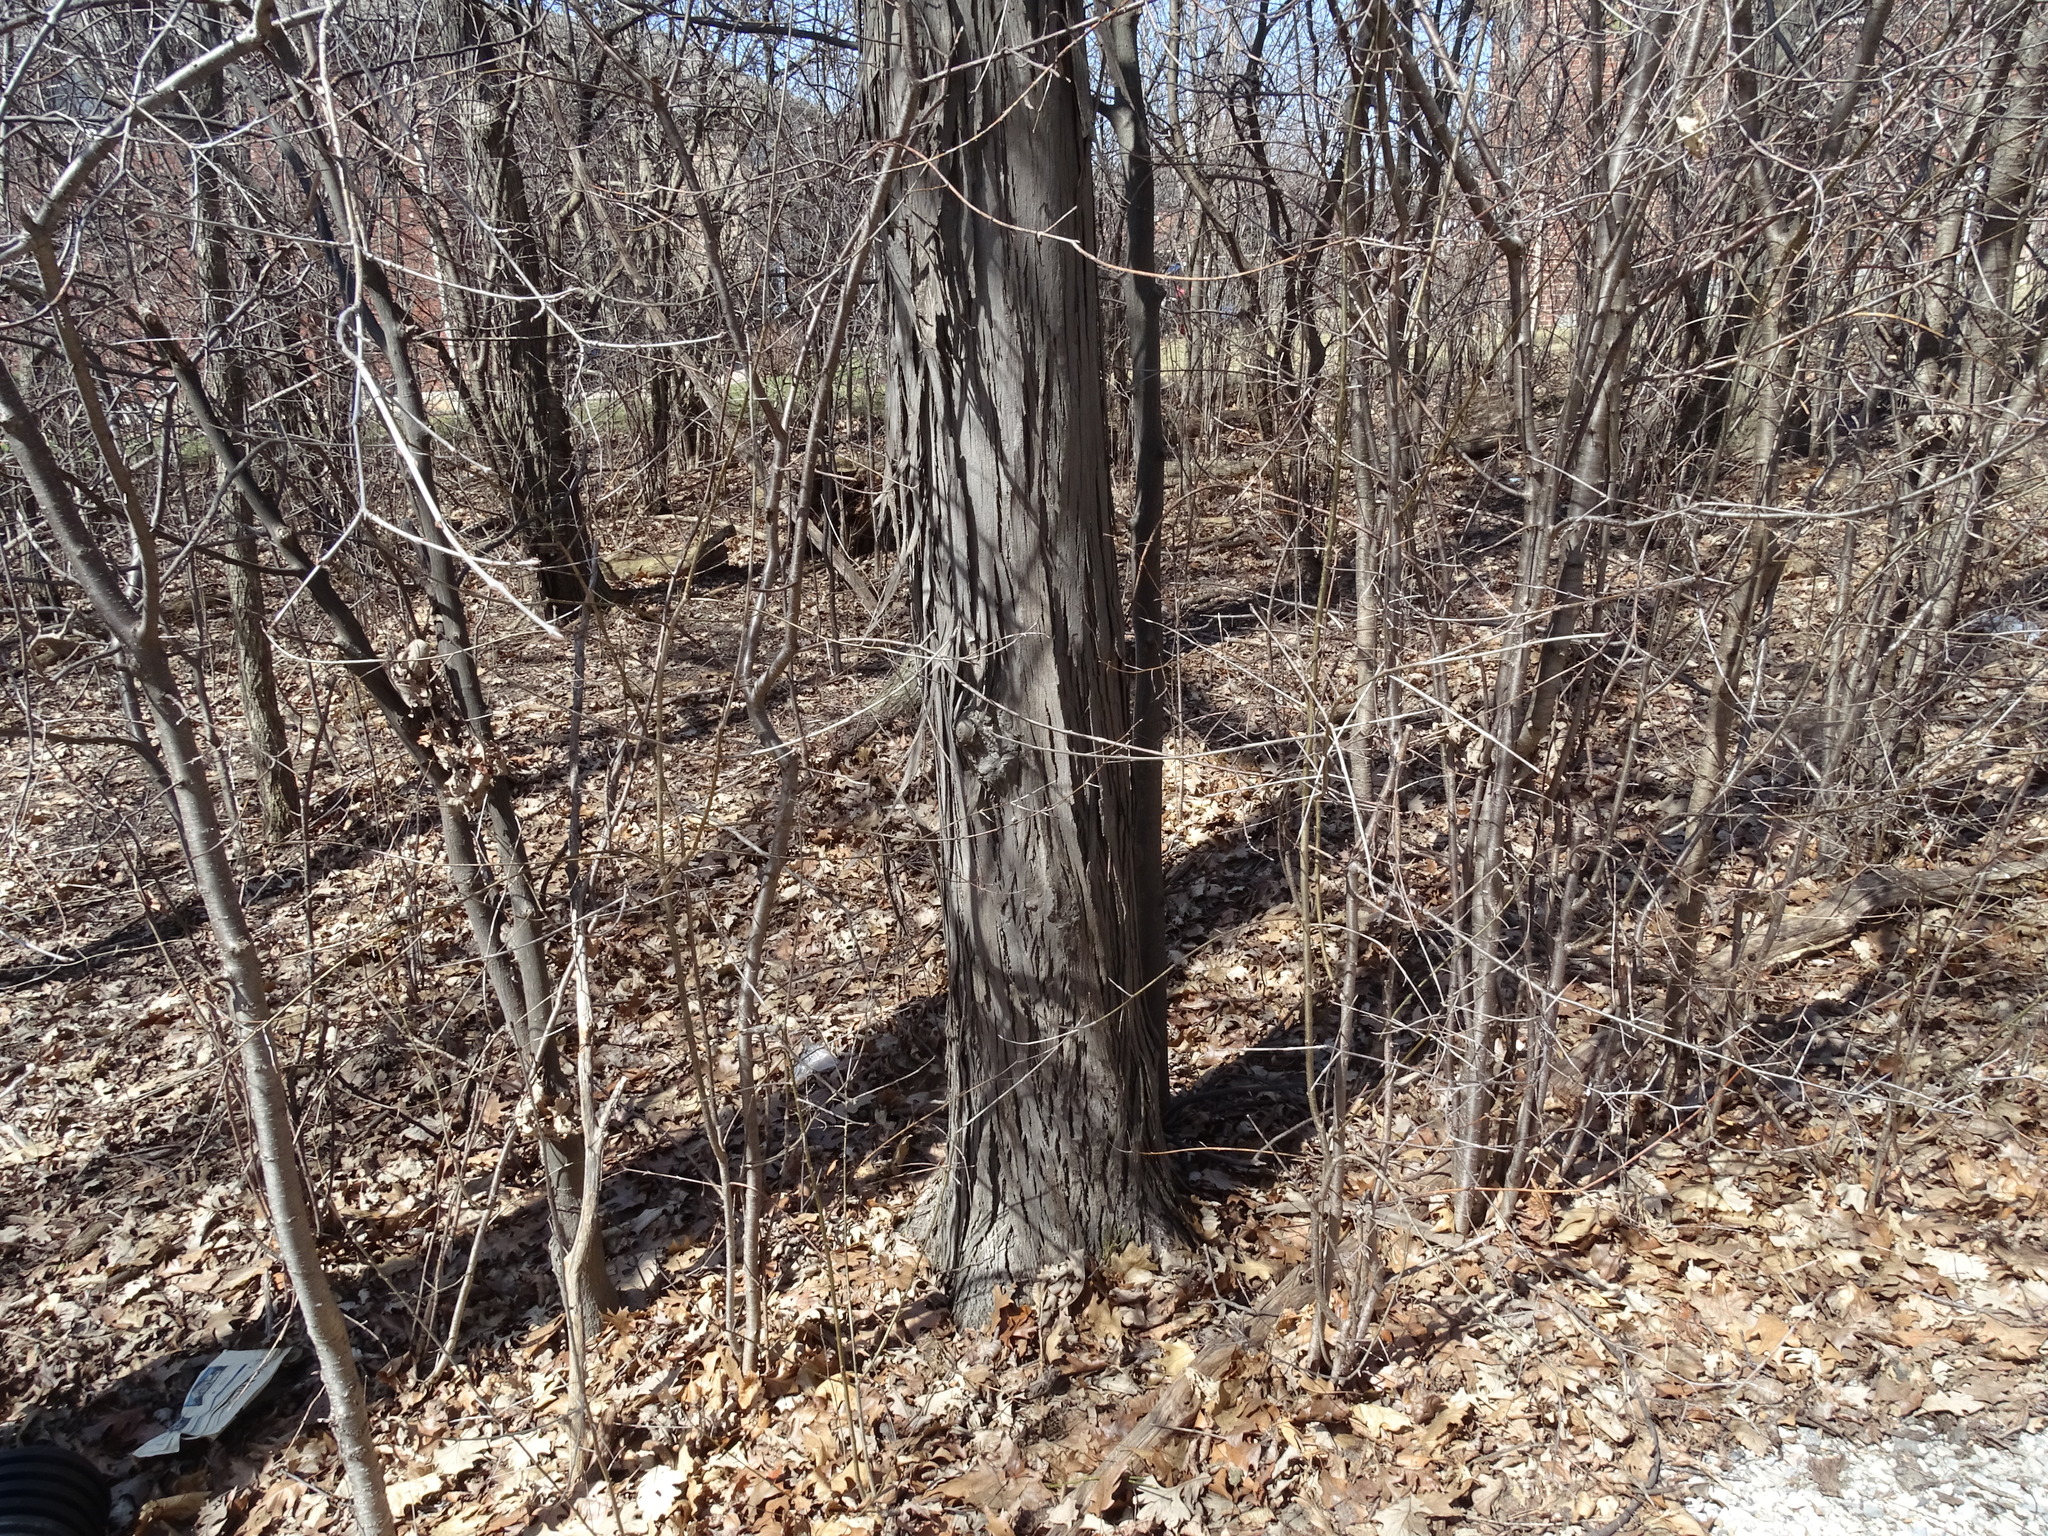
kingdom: Plantae
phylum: Tracheophyta
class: Magnoliopsida
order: Fagales
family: Juglandaceae
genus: Carya
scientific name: Carya ovata
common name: Shagbark hickory
